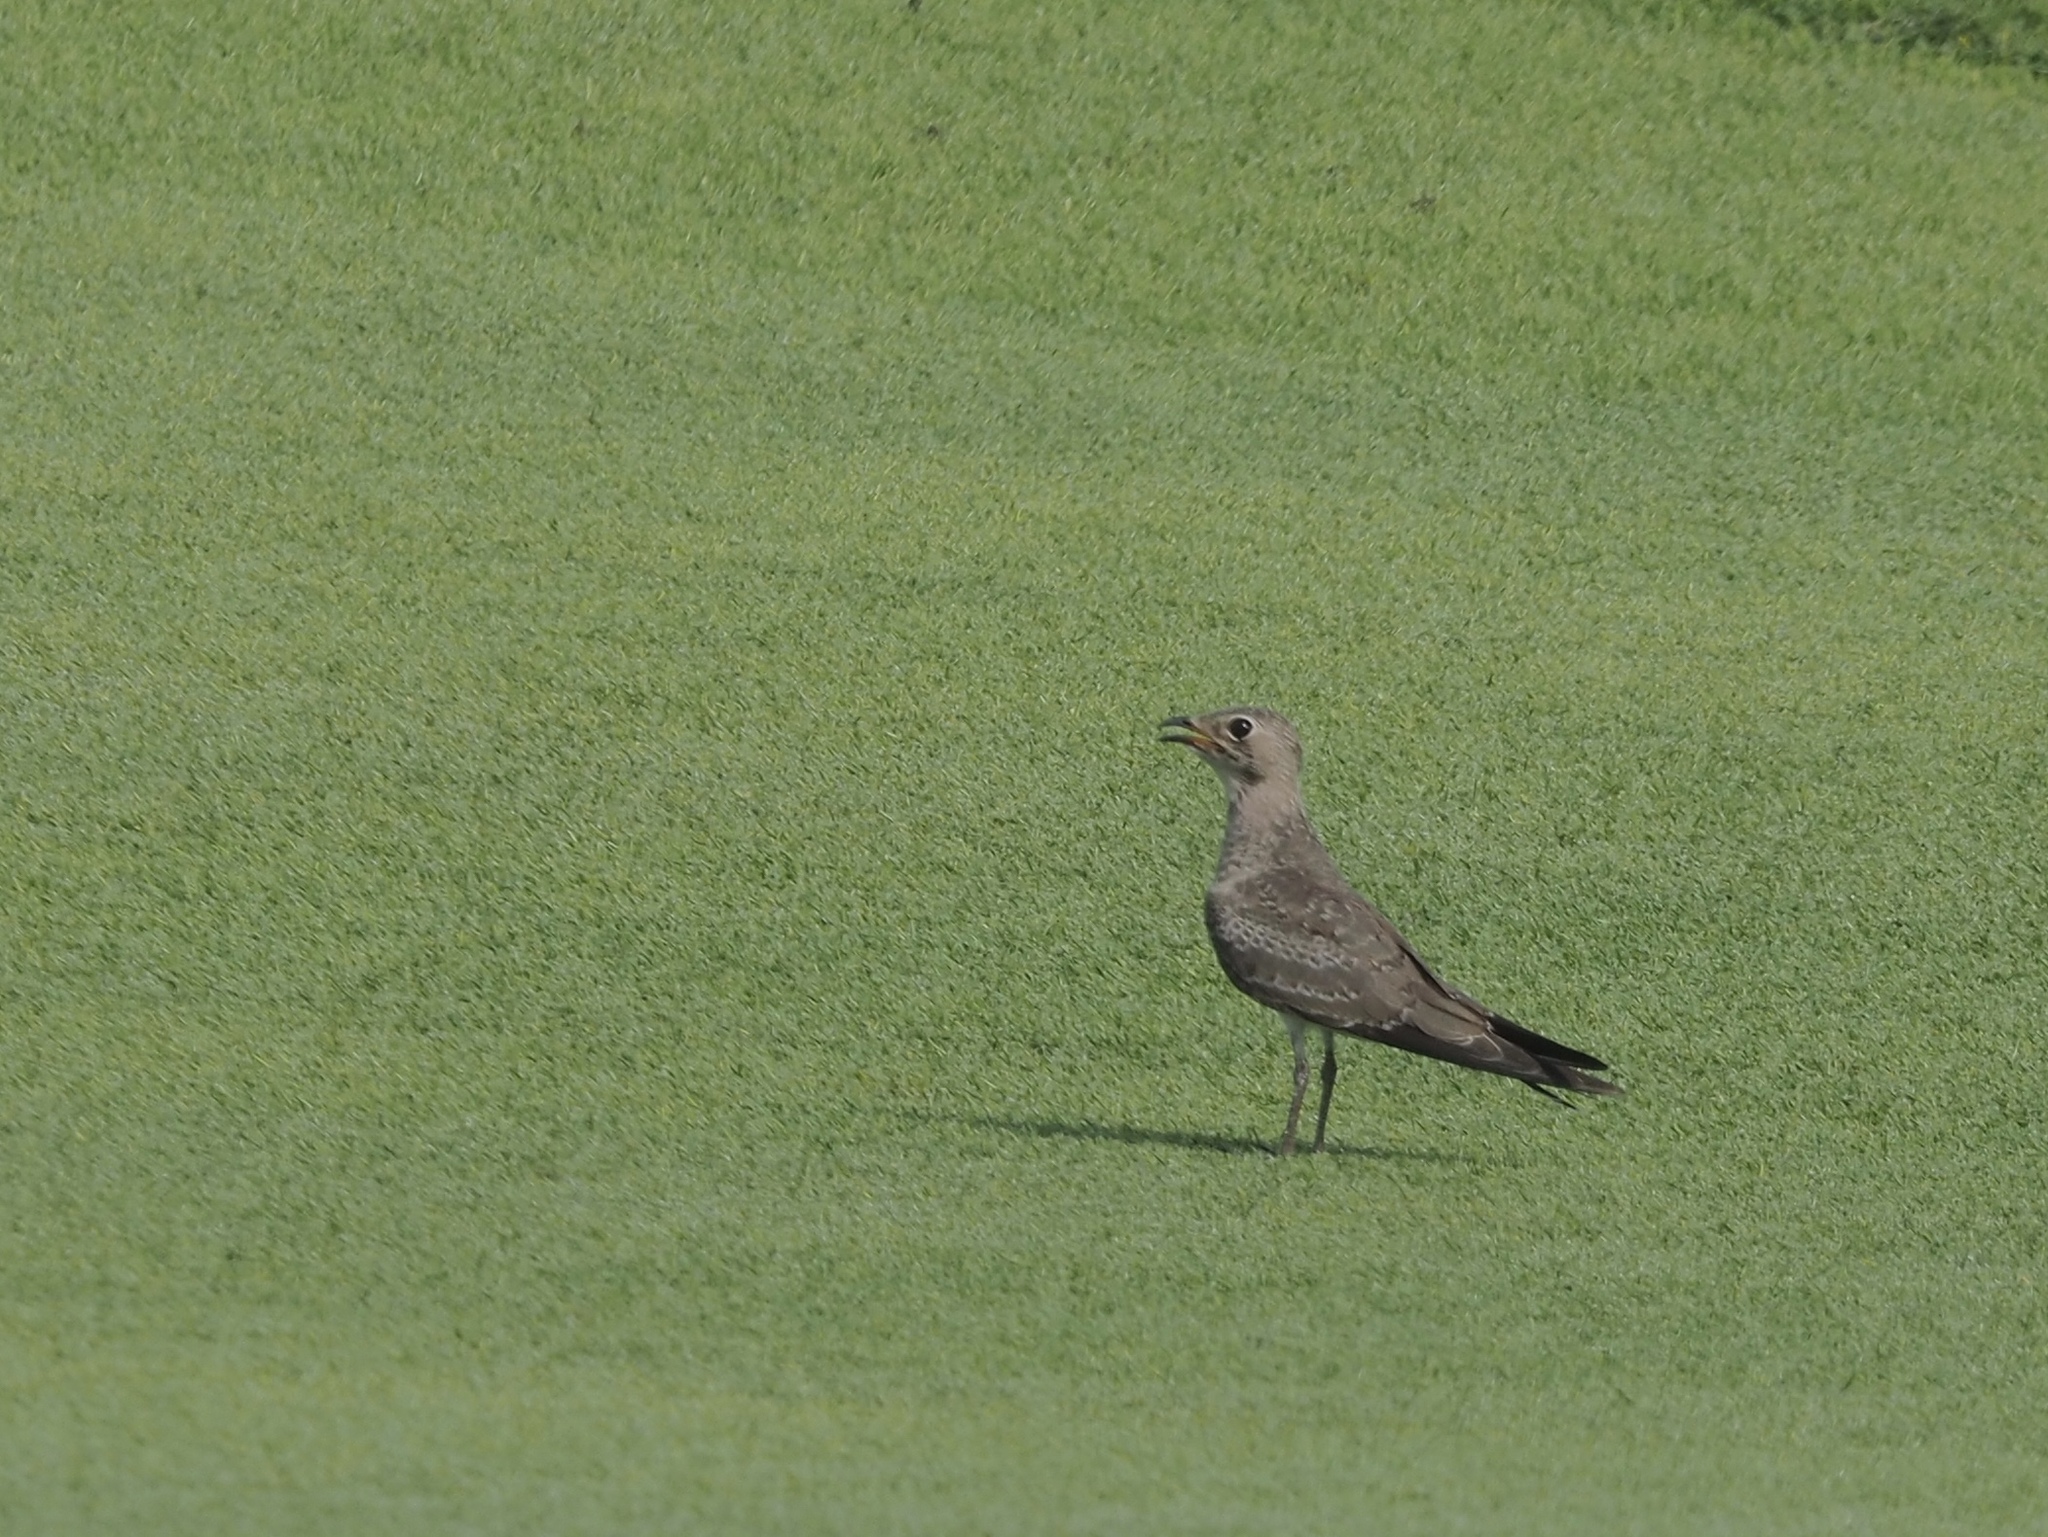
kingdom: Animalia
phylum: Chordata
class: Aves
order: Charadriiformes
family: Glareolidae
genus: Glareola
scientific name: Glareola pratincola
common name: Collared pratincole
